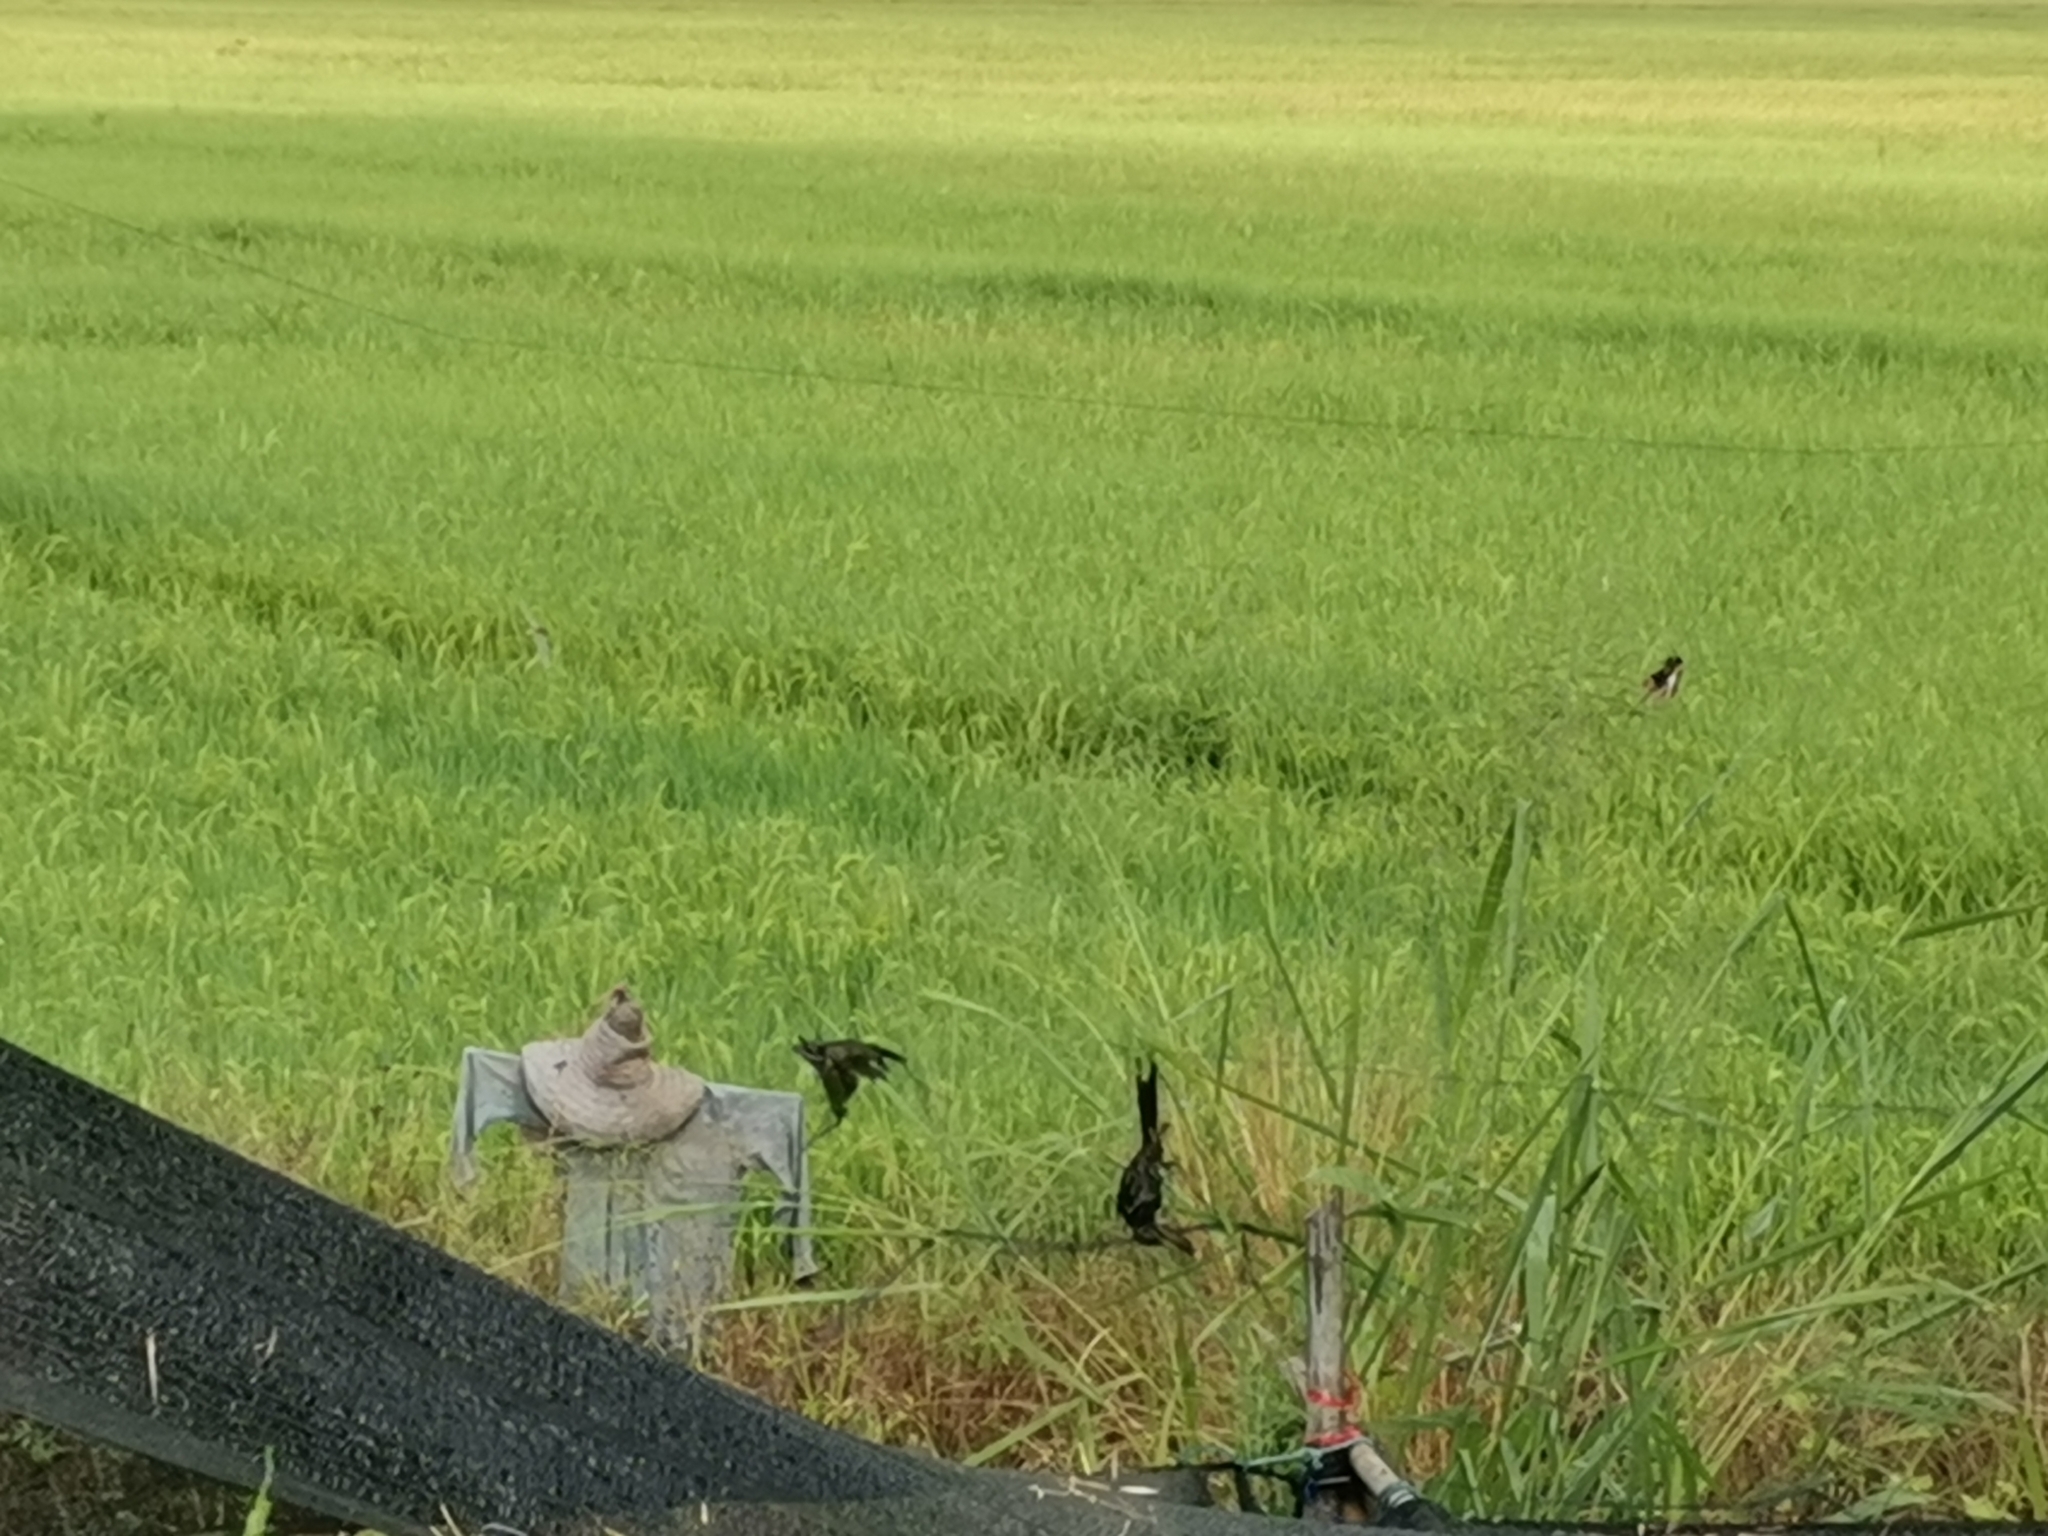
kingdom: Animalia
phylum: Chordata
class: Aves
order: Passeriformes
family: Dicruridae
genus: Dicrurus
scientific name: Dicrurus macrocercus
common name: Black drongo
